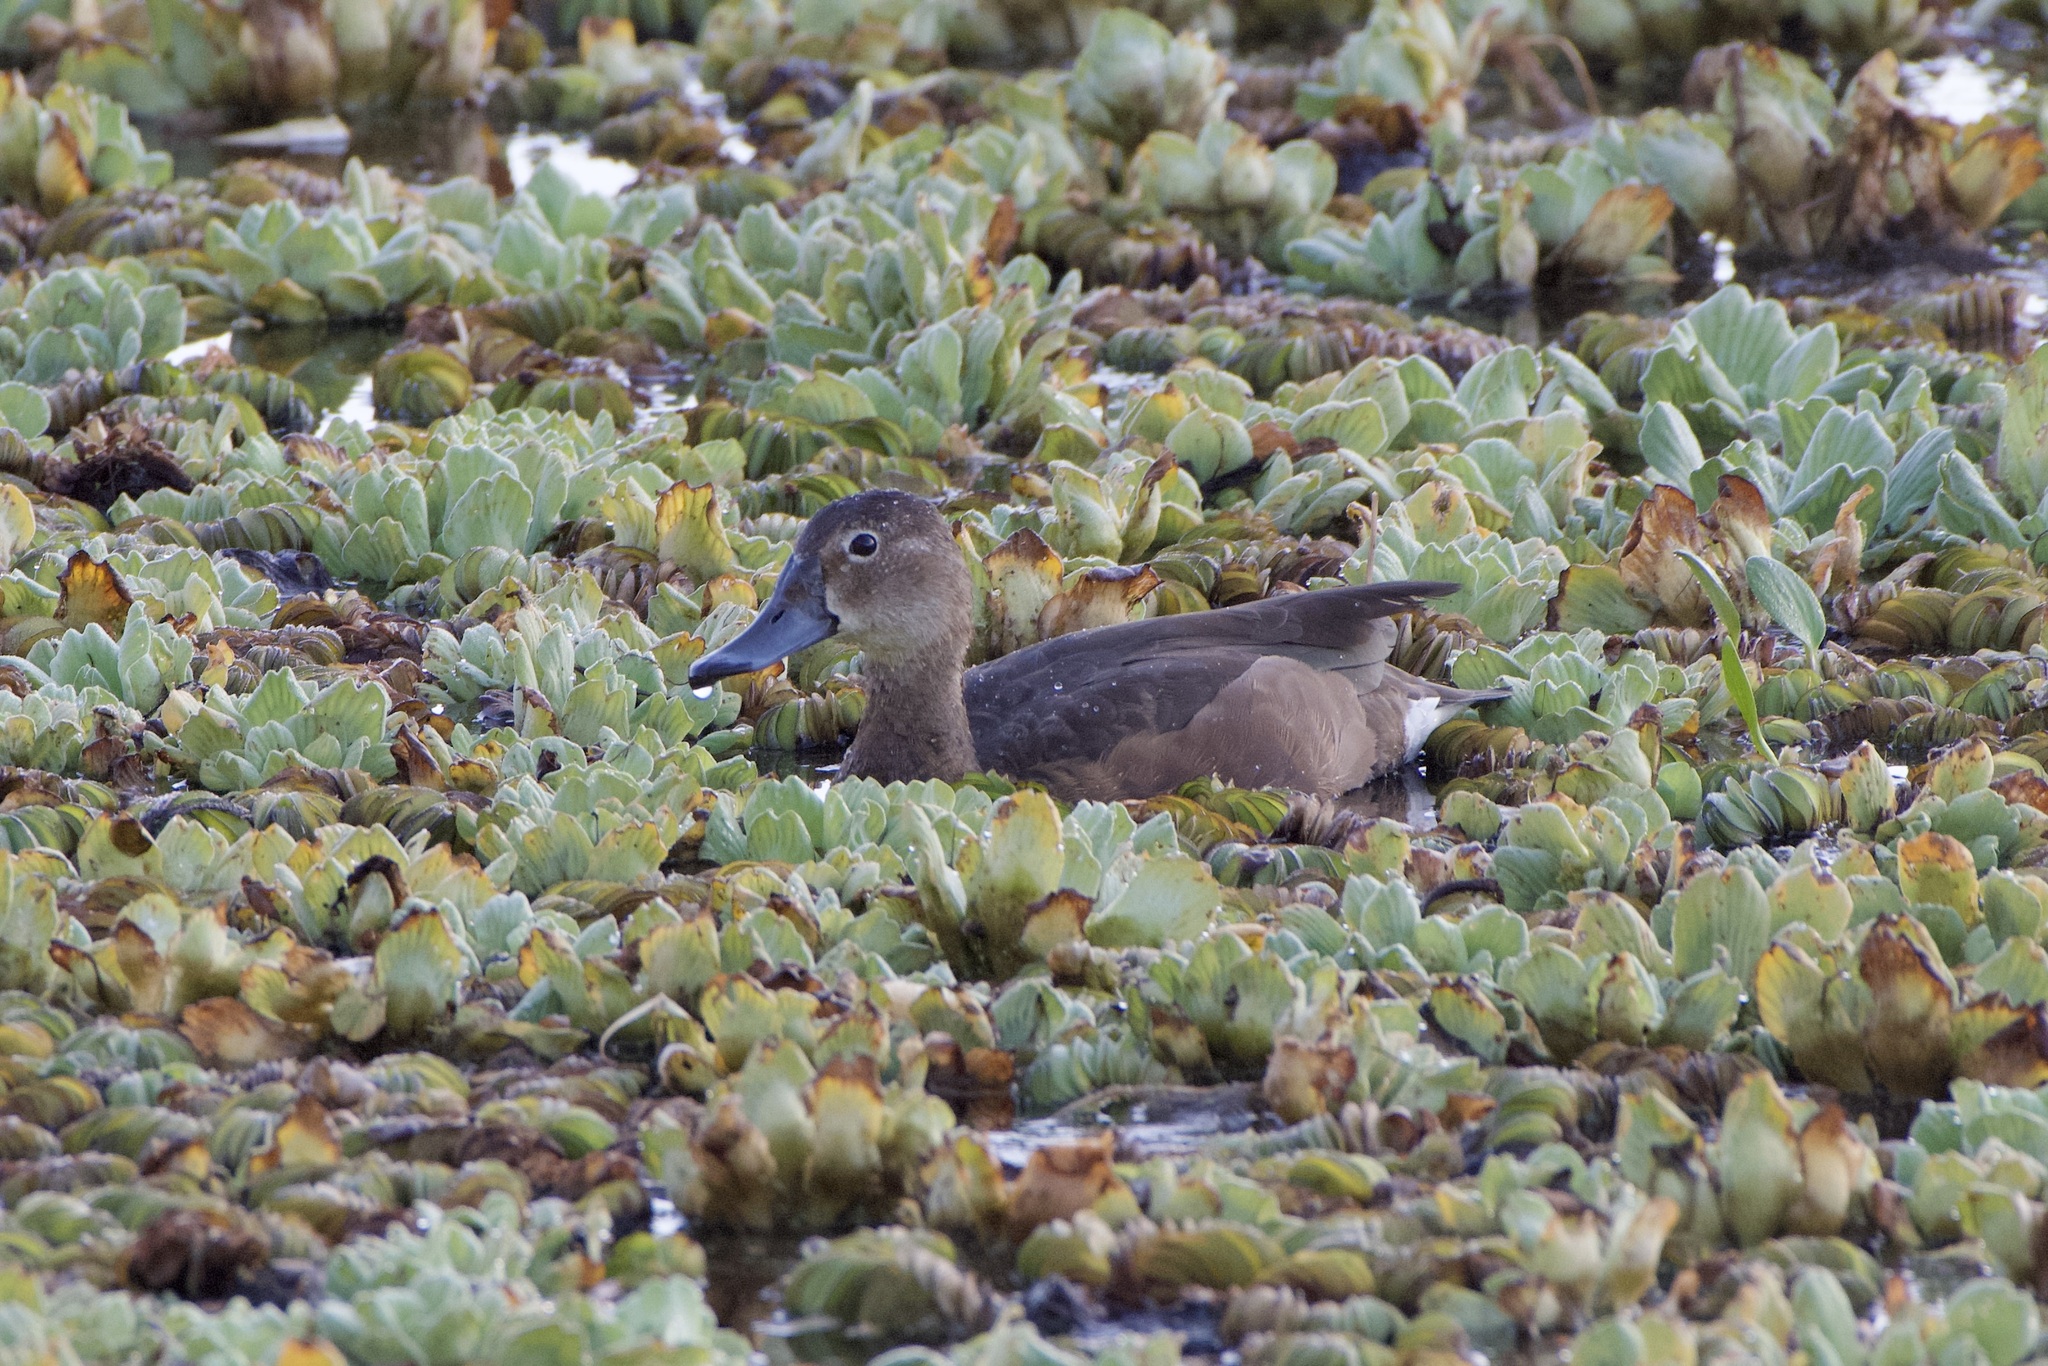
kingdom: Animalia
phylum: Chordata
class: Aves
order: Anseriformes
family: Anatidae
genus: Netta
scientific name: Netta peposaca
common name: Rosy-billed pochard
